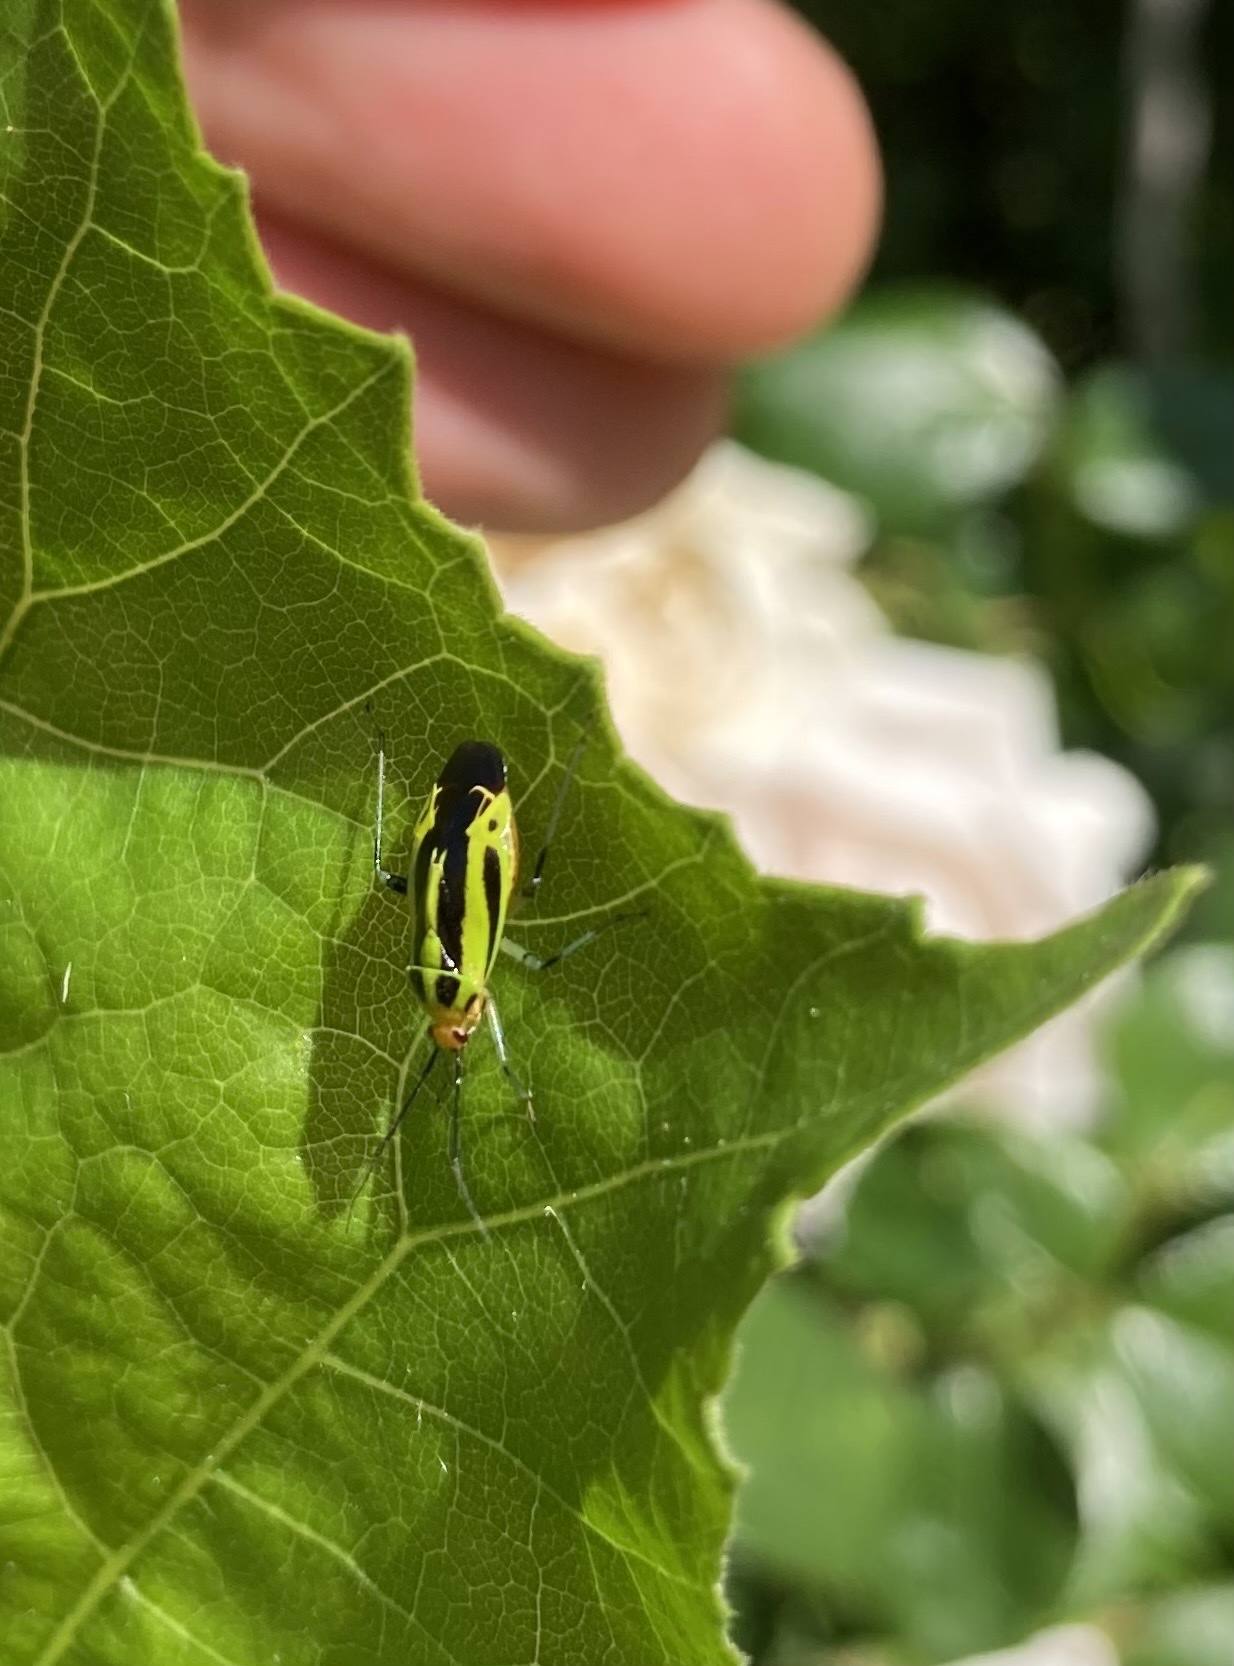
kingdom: Animalia
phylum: Arthropoda
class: Insecta
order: Hemiptera
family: Miridae
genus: Poecilocapsus
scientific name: Poecilocapsus lineatus
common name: Four-lined plant bug
